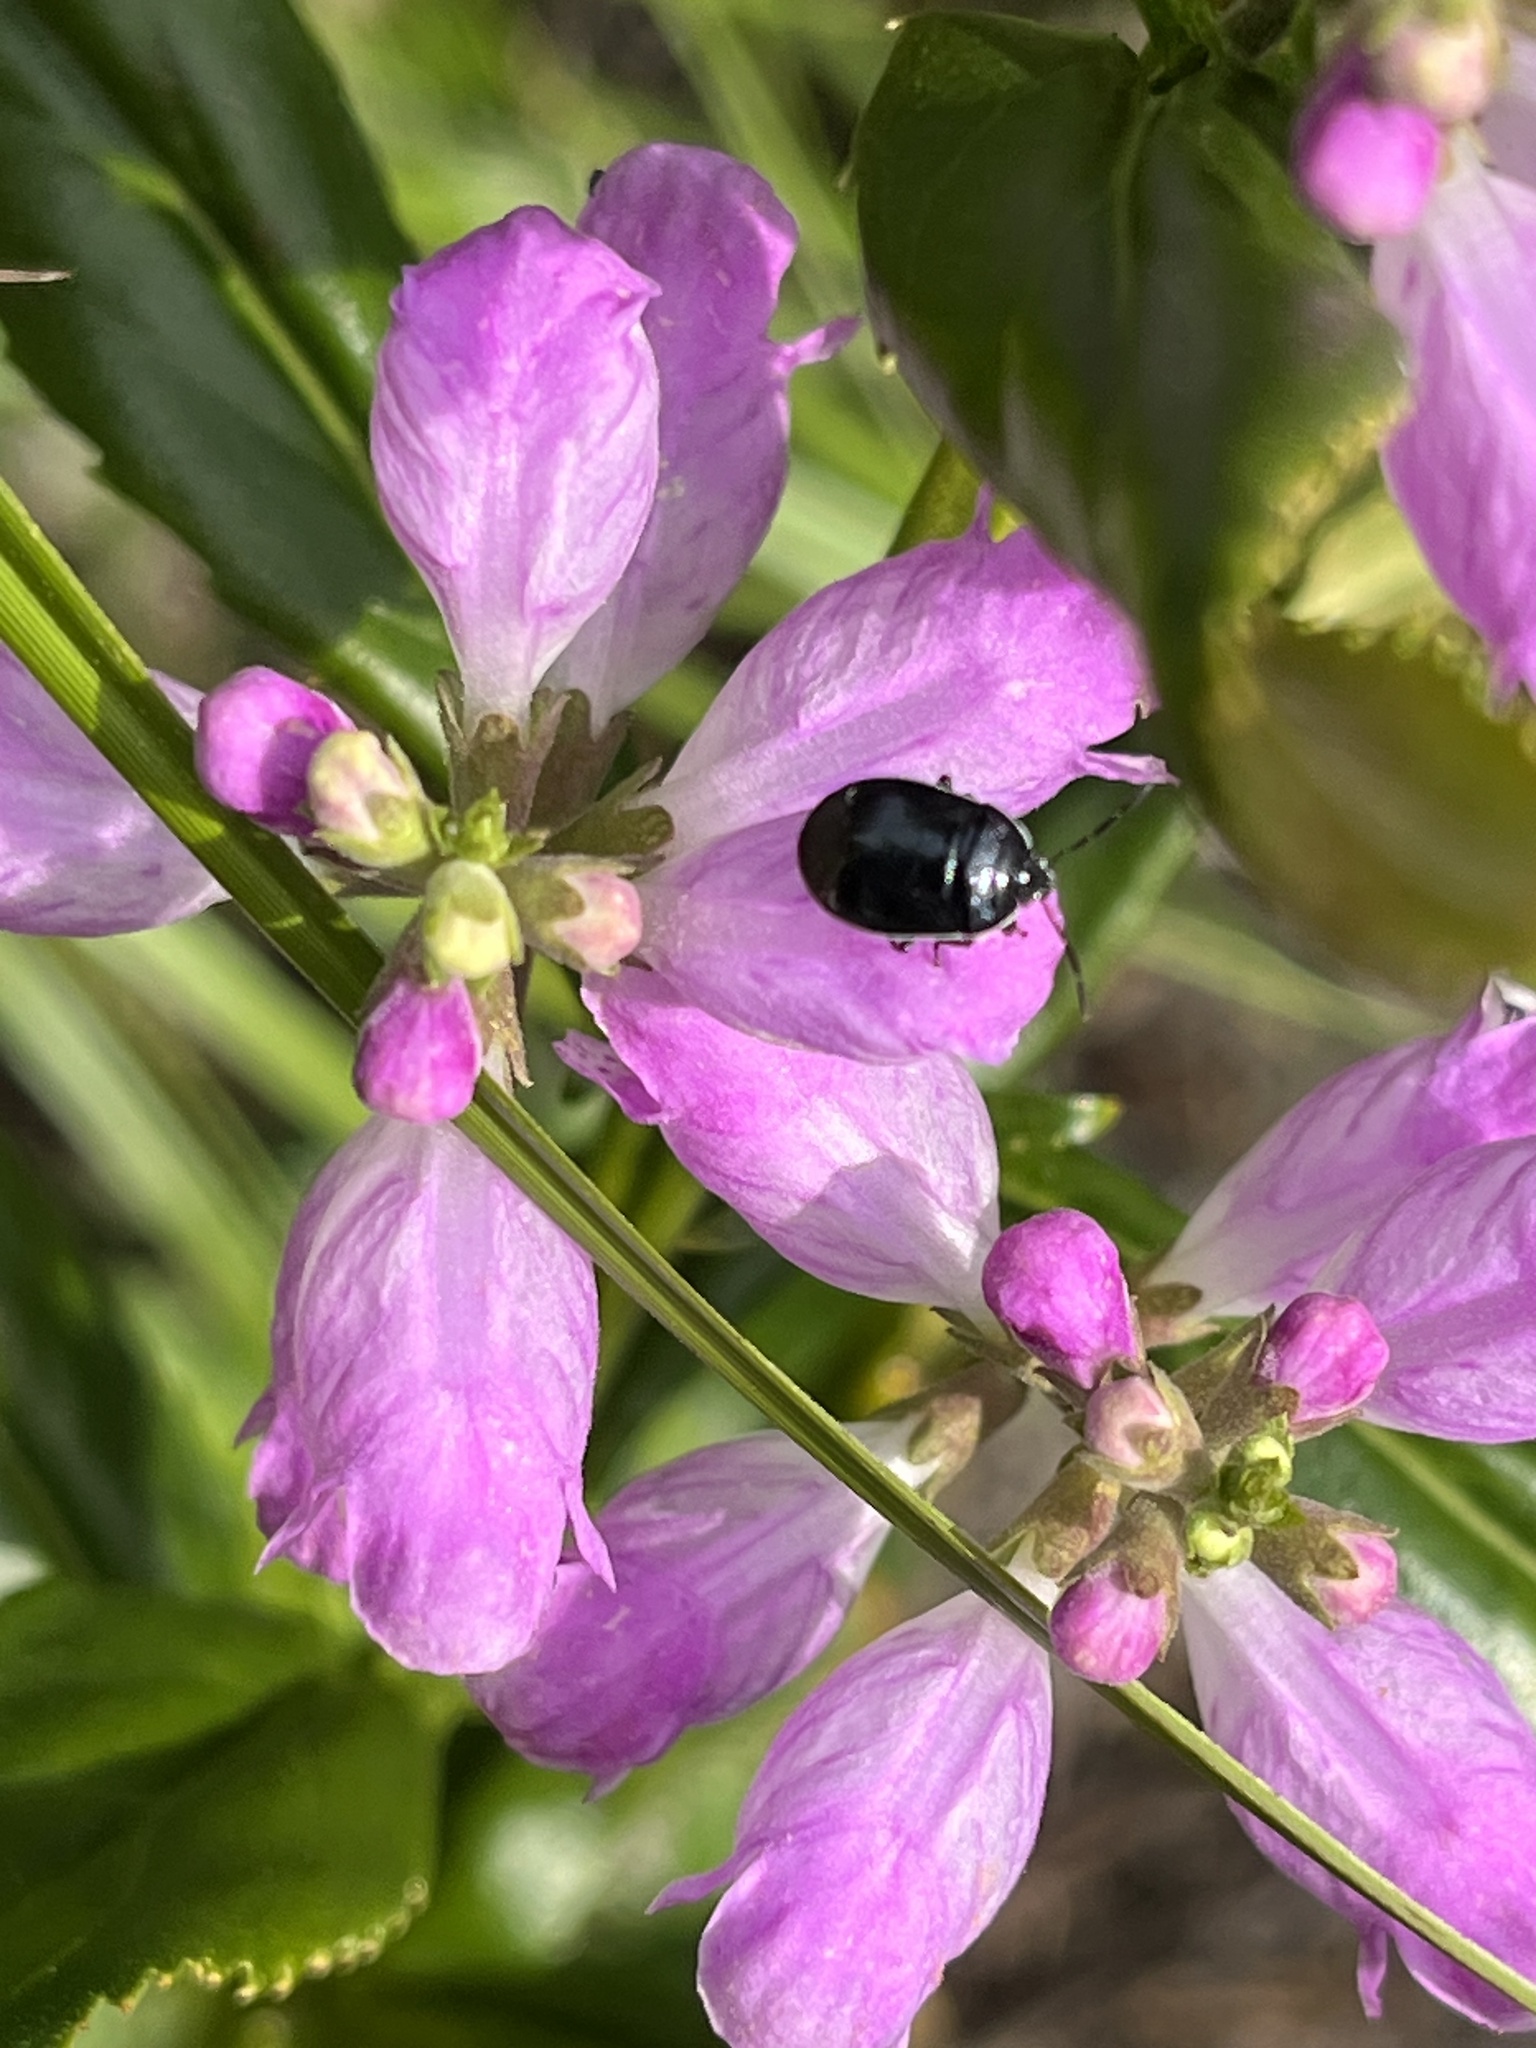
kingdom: Animalia
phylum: Arthropoda
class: Insecta
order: Hemiptera
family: Cydnidae
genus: Sehirus
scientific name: Sehirus cinctus
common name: White-margined burrower bug
